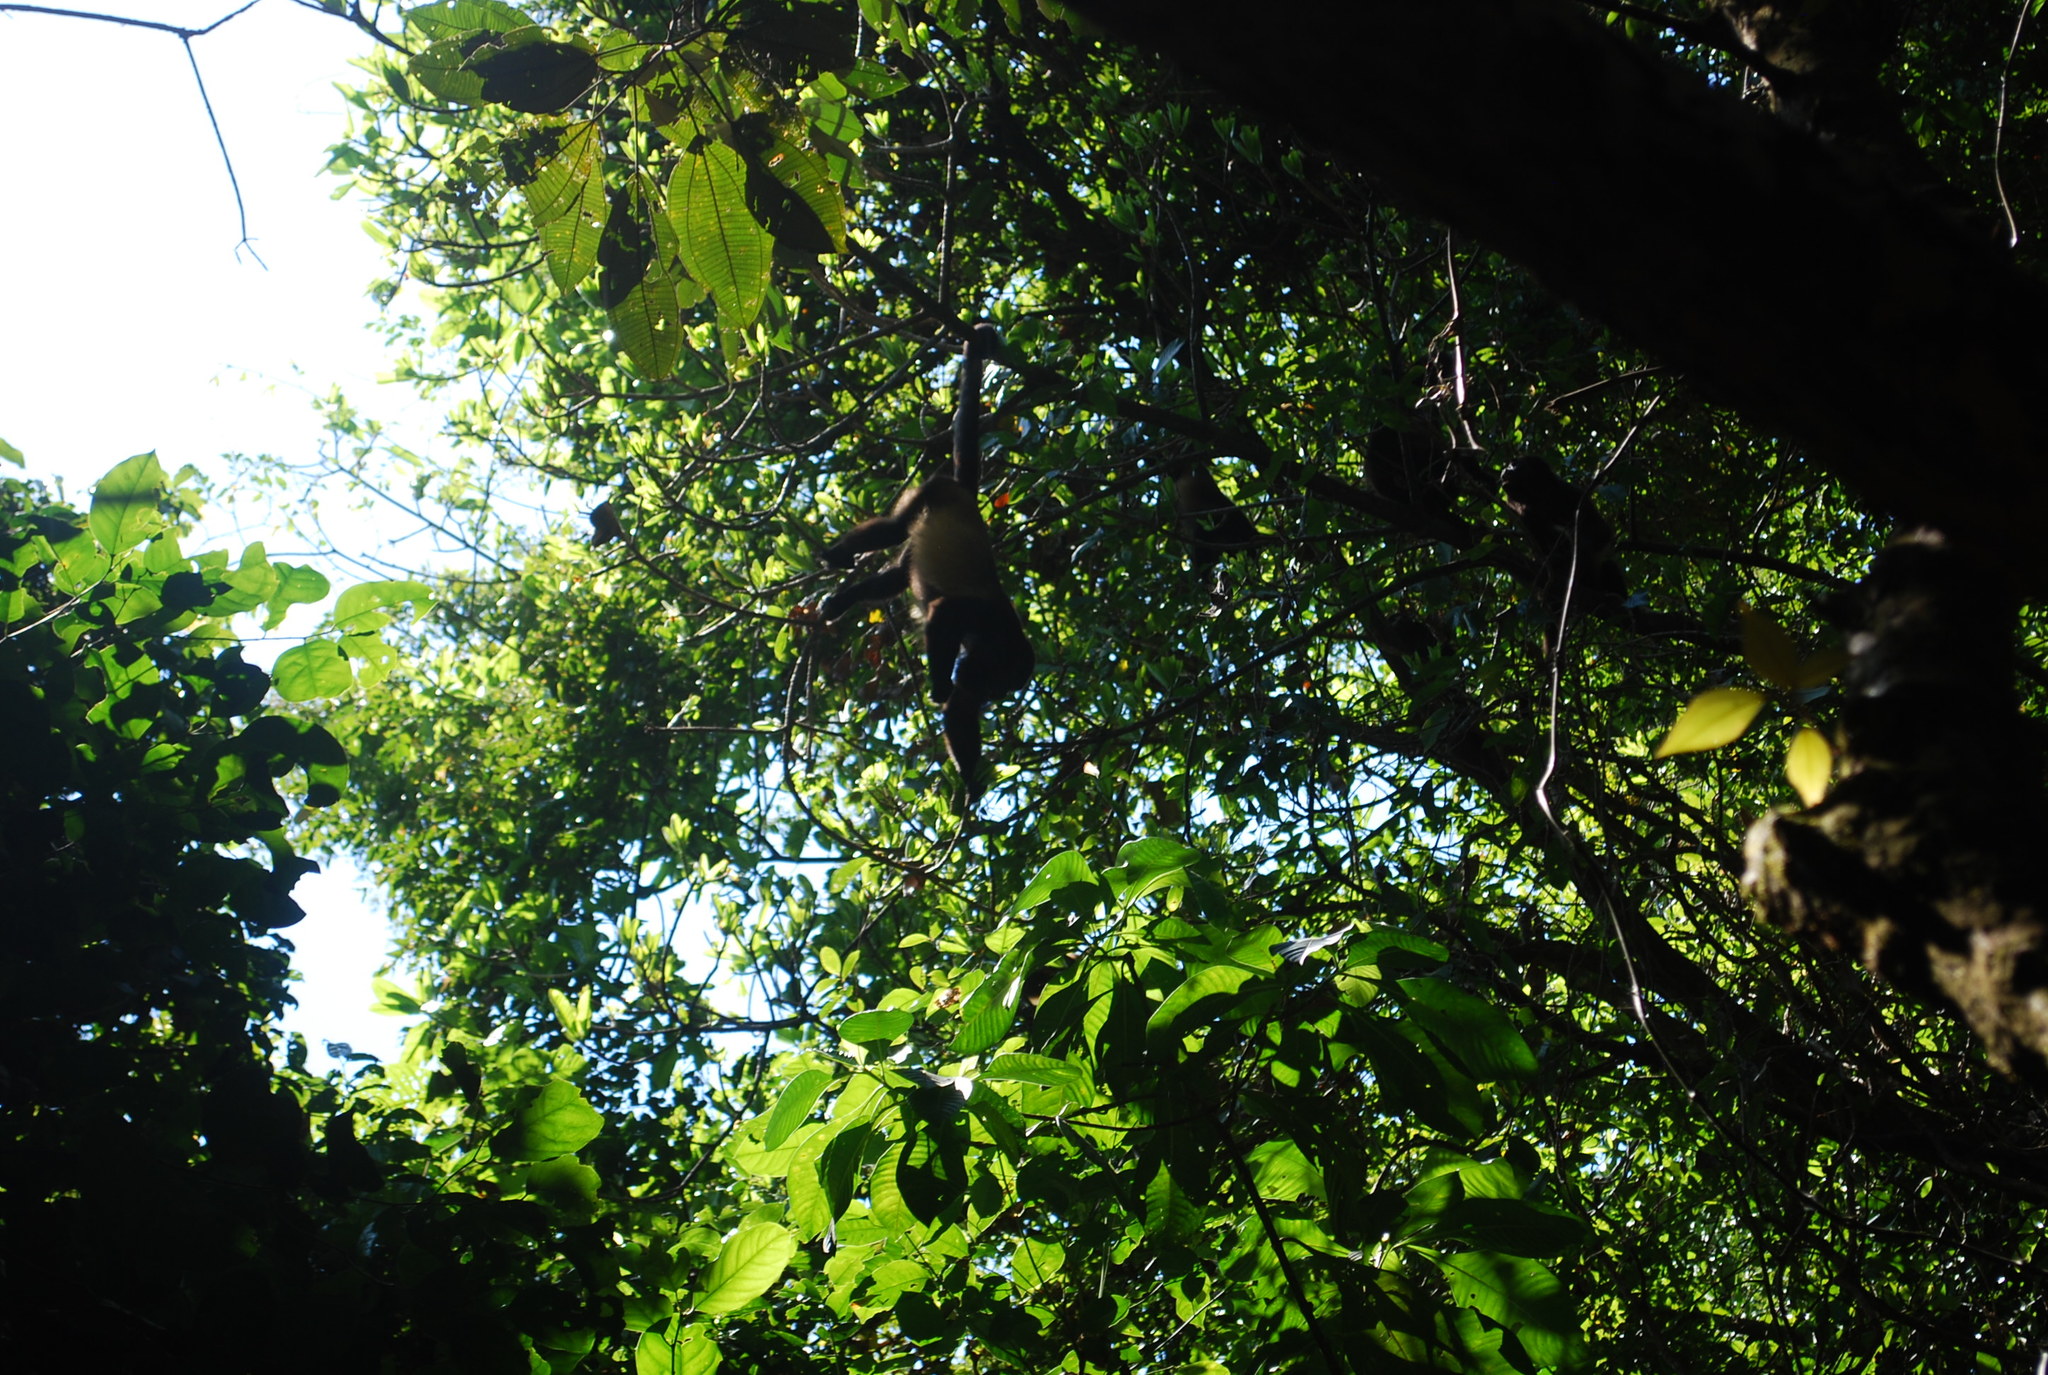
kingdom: Animalia
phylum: Chordata
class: Mammalia
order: Primates
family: Atelidae
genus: Alouatta
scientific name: Alouatta palliata
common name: Mantled howler
